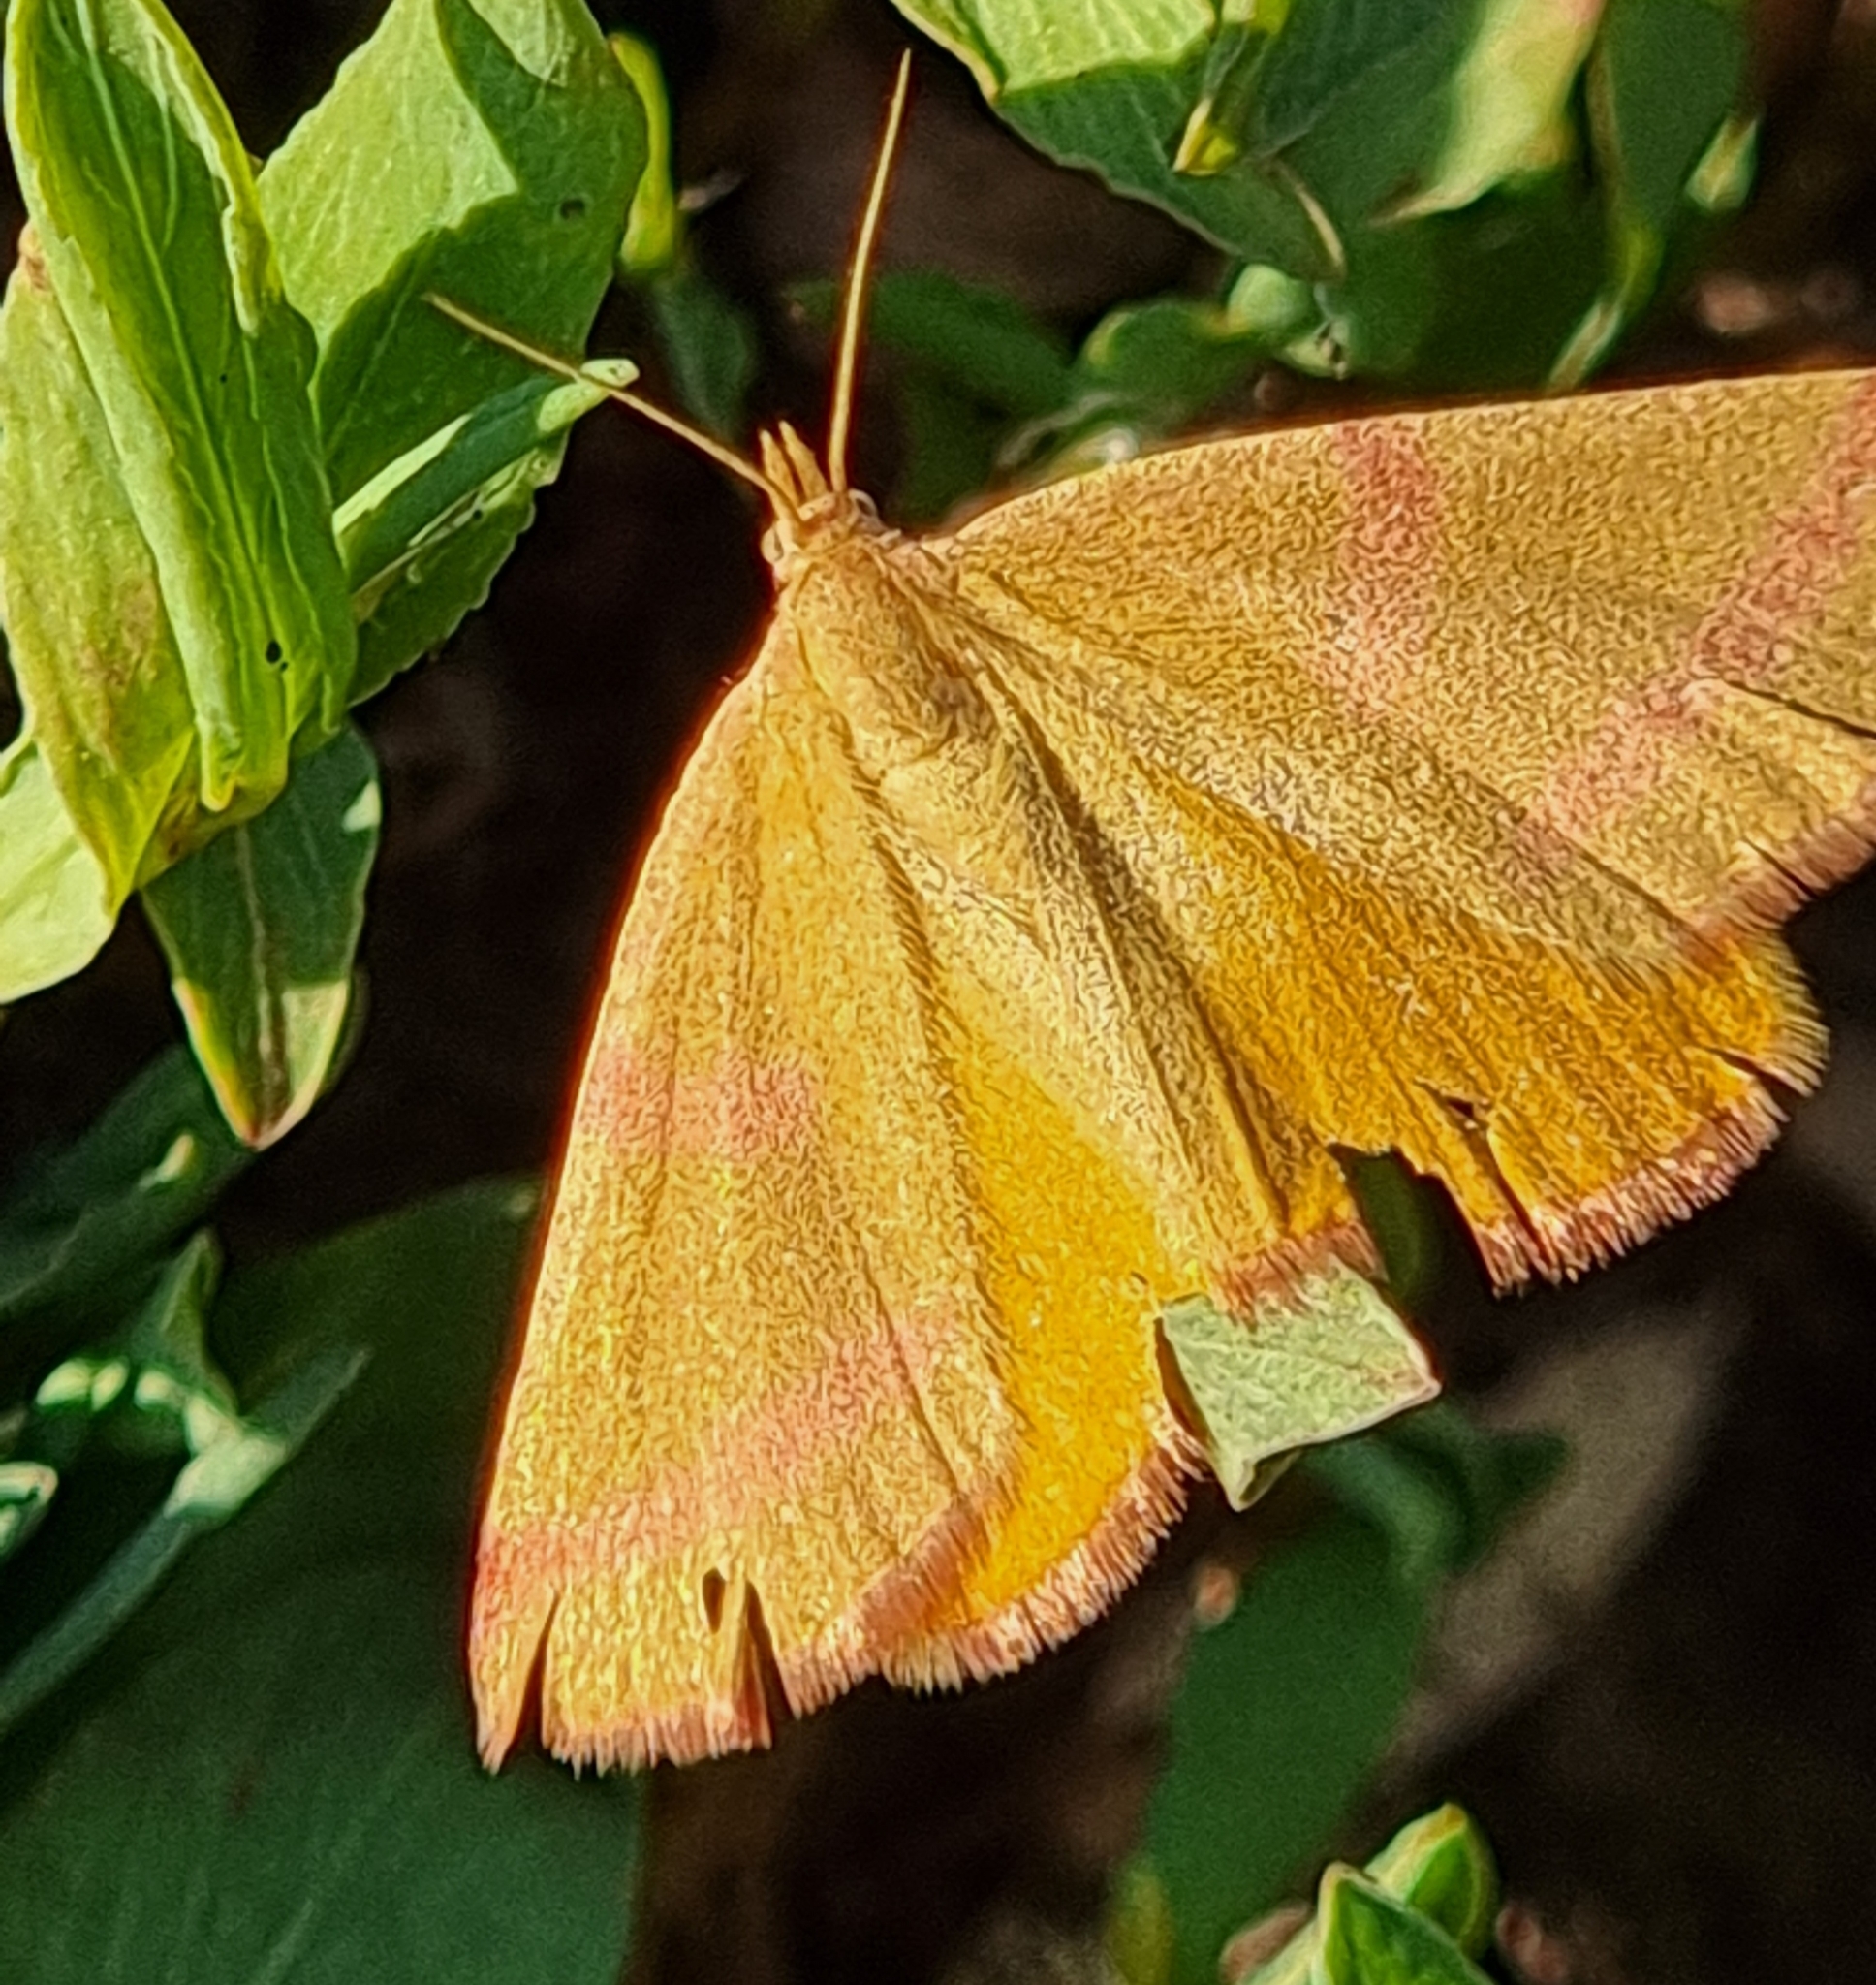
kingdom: Animalia
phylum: Arthropoda
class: Insecta
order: Lepidoptera
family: Geometridae
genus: Lythria
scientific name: Lythria purpuraria
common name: Purple-barred yellow
